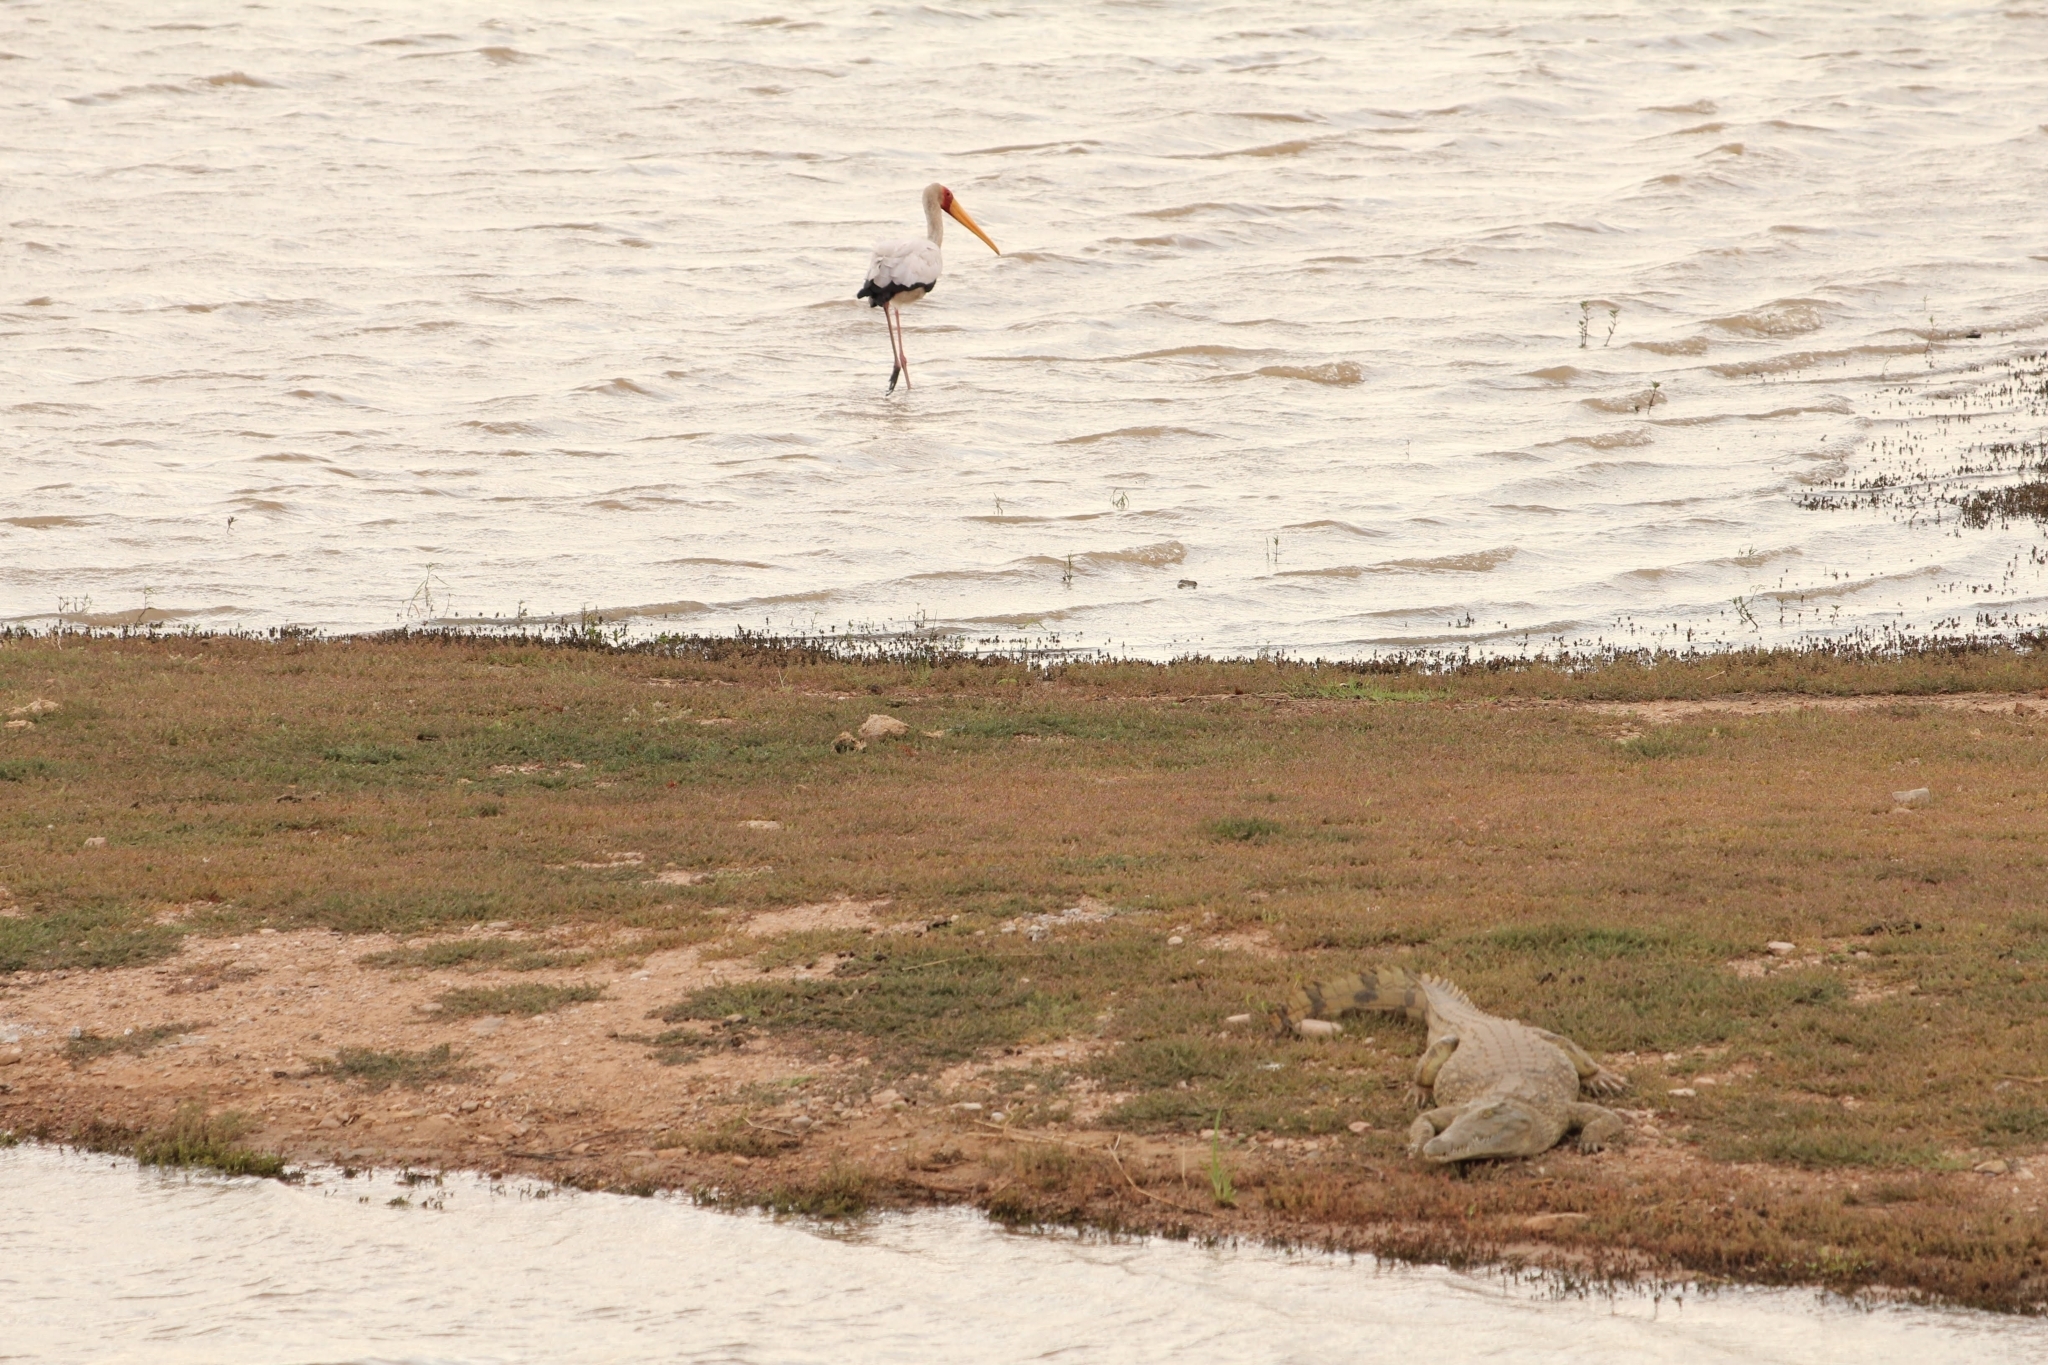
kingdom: Animalia
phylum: Chordata
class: Aves
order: Ciconiiformes
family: Ciconiidae
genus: Mycteria
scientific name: Mycteria ibis
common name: Yellow-billed stork
